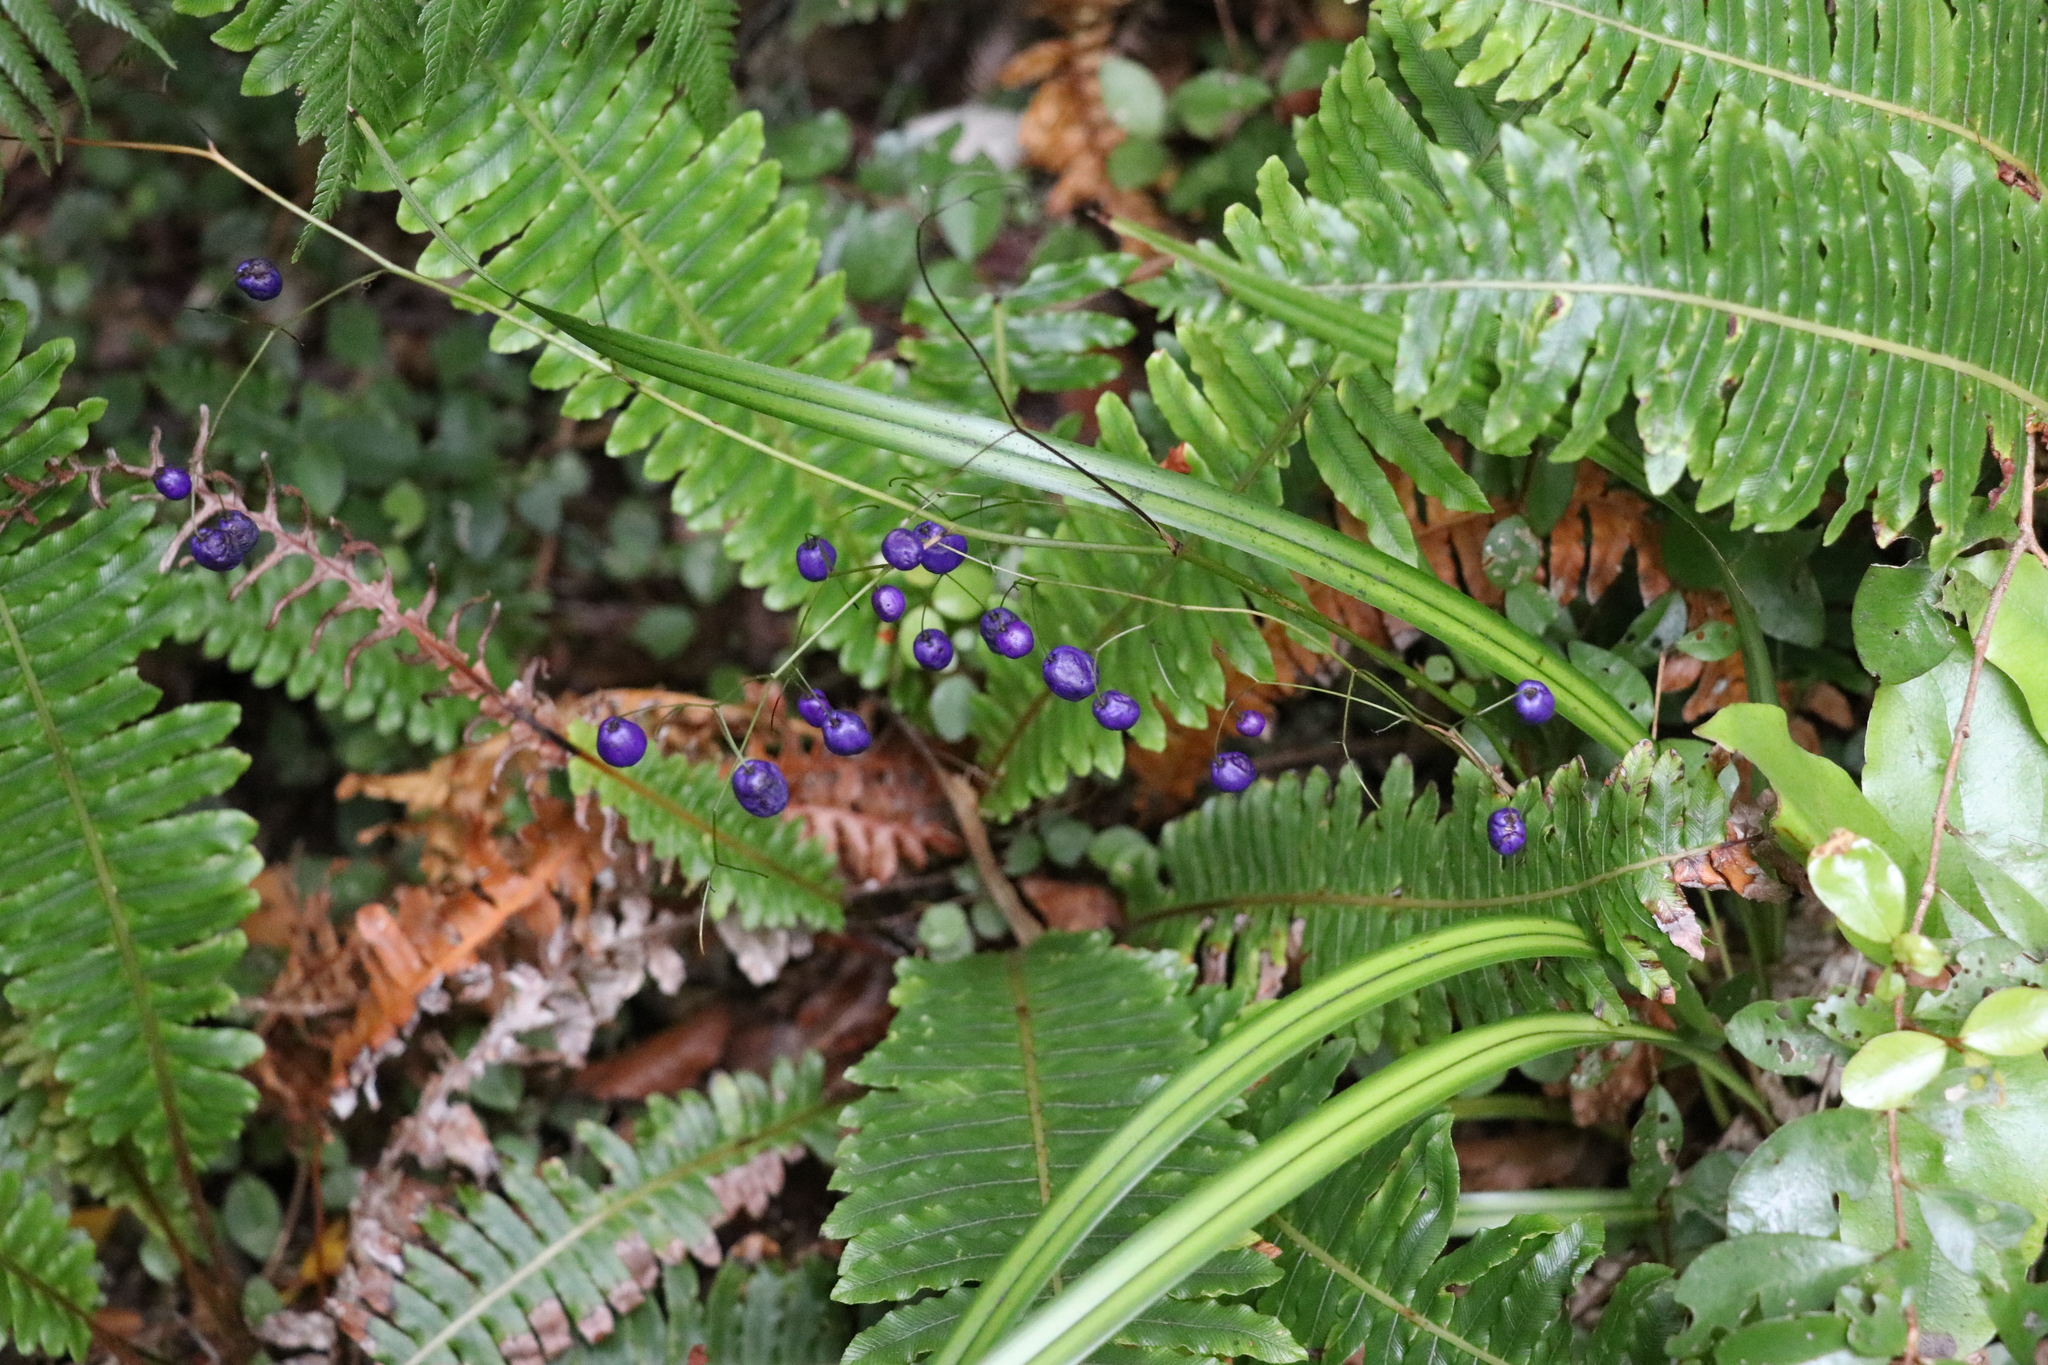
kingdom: Plantae
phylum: Tracheophyta
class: Liliopsida
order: Asparagales
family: Asphodelaceae
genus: Dianella
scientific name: Dianella nigra
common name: New zealand-blueberry
